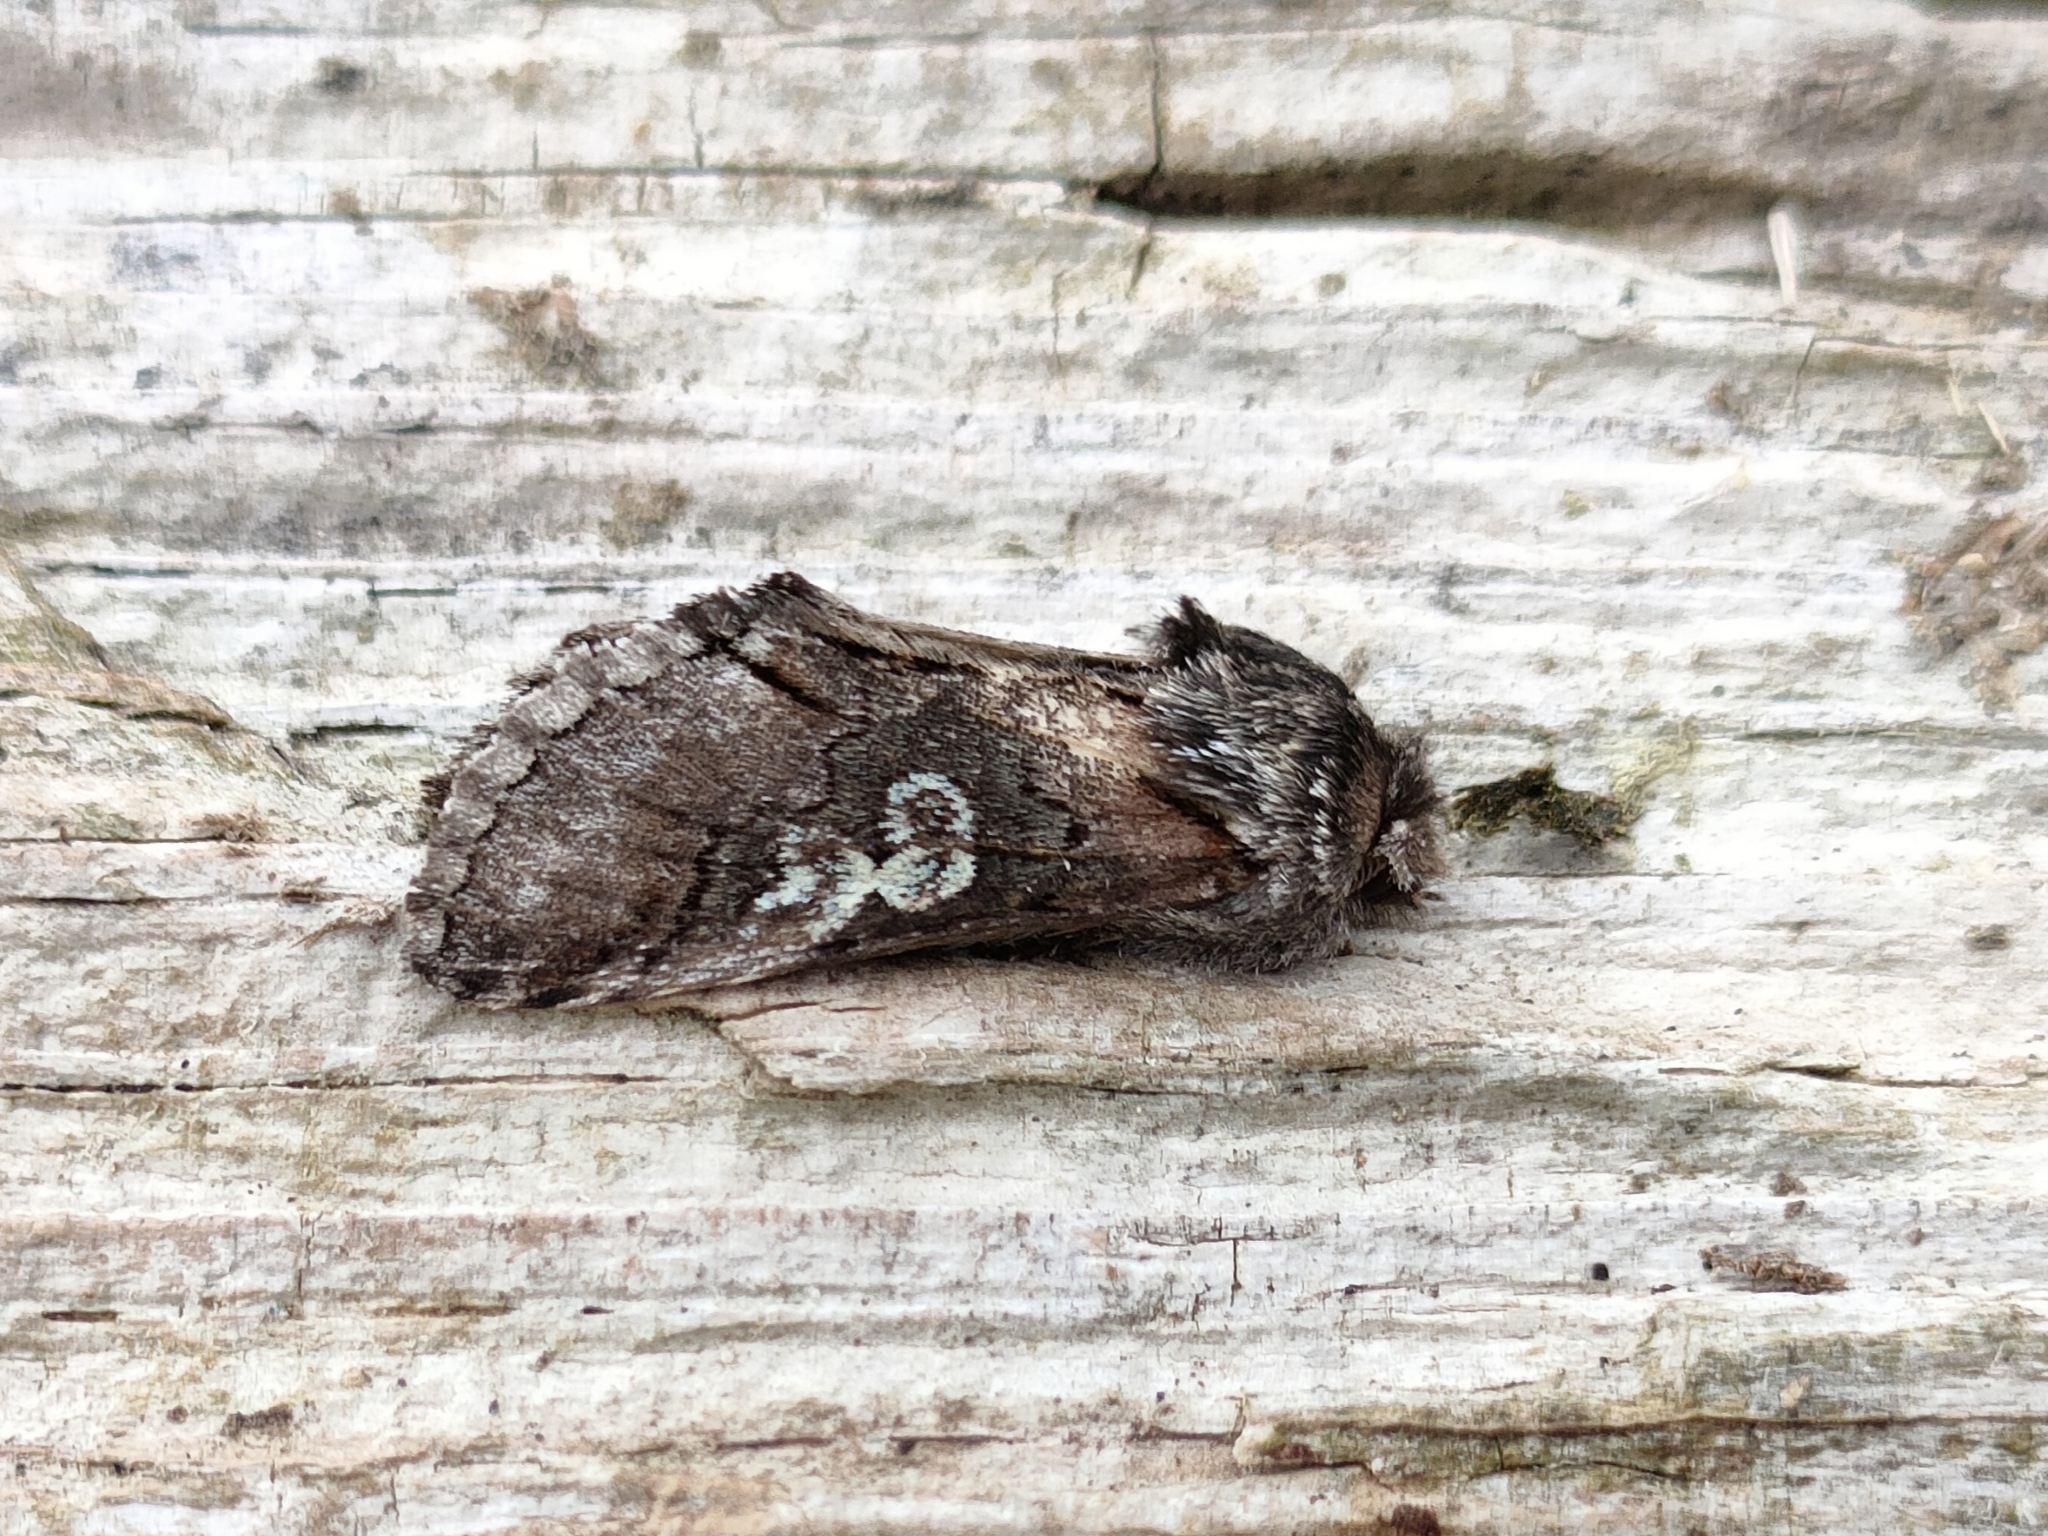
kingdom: Animalia
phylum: Arthropoda
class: Insecta
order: Lepidoptera
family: Noctuidae
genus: Diloba
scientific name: Diloba caeruleocephala
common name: Figure of eight
